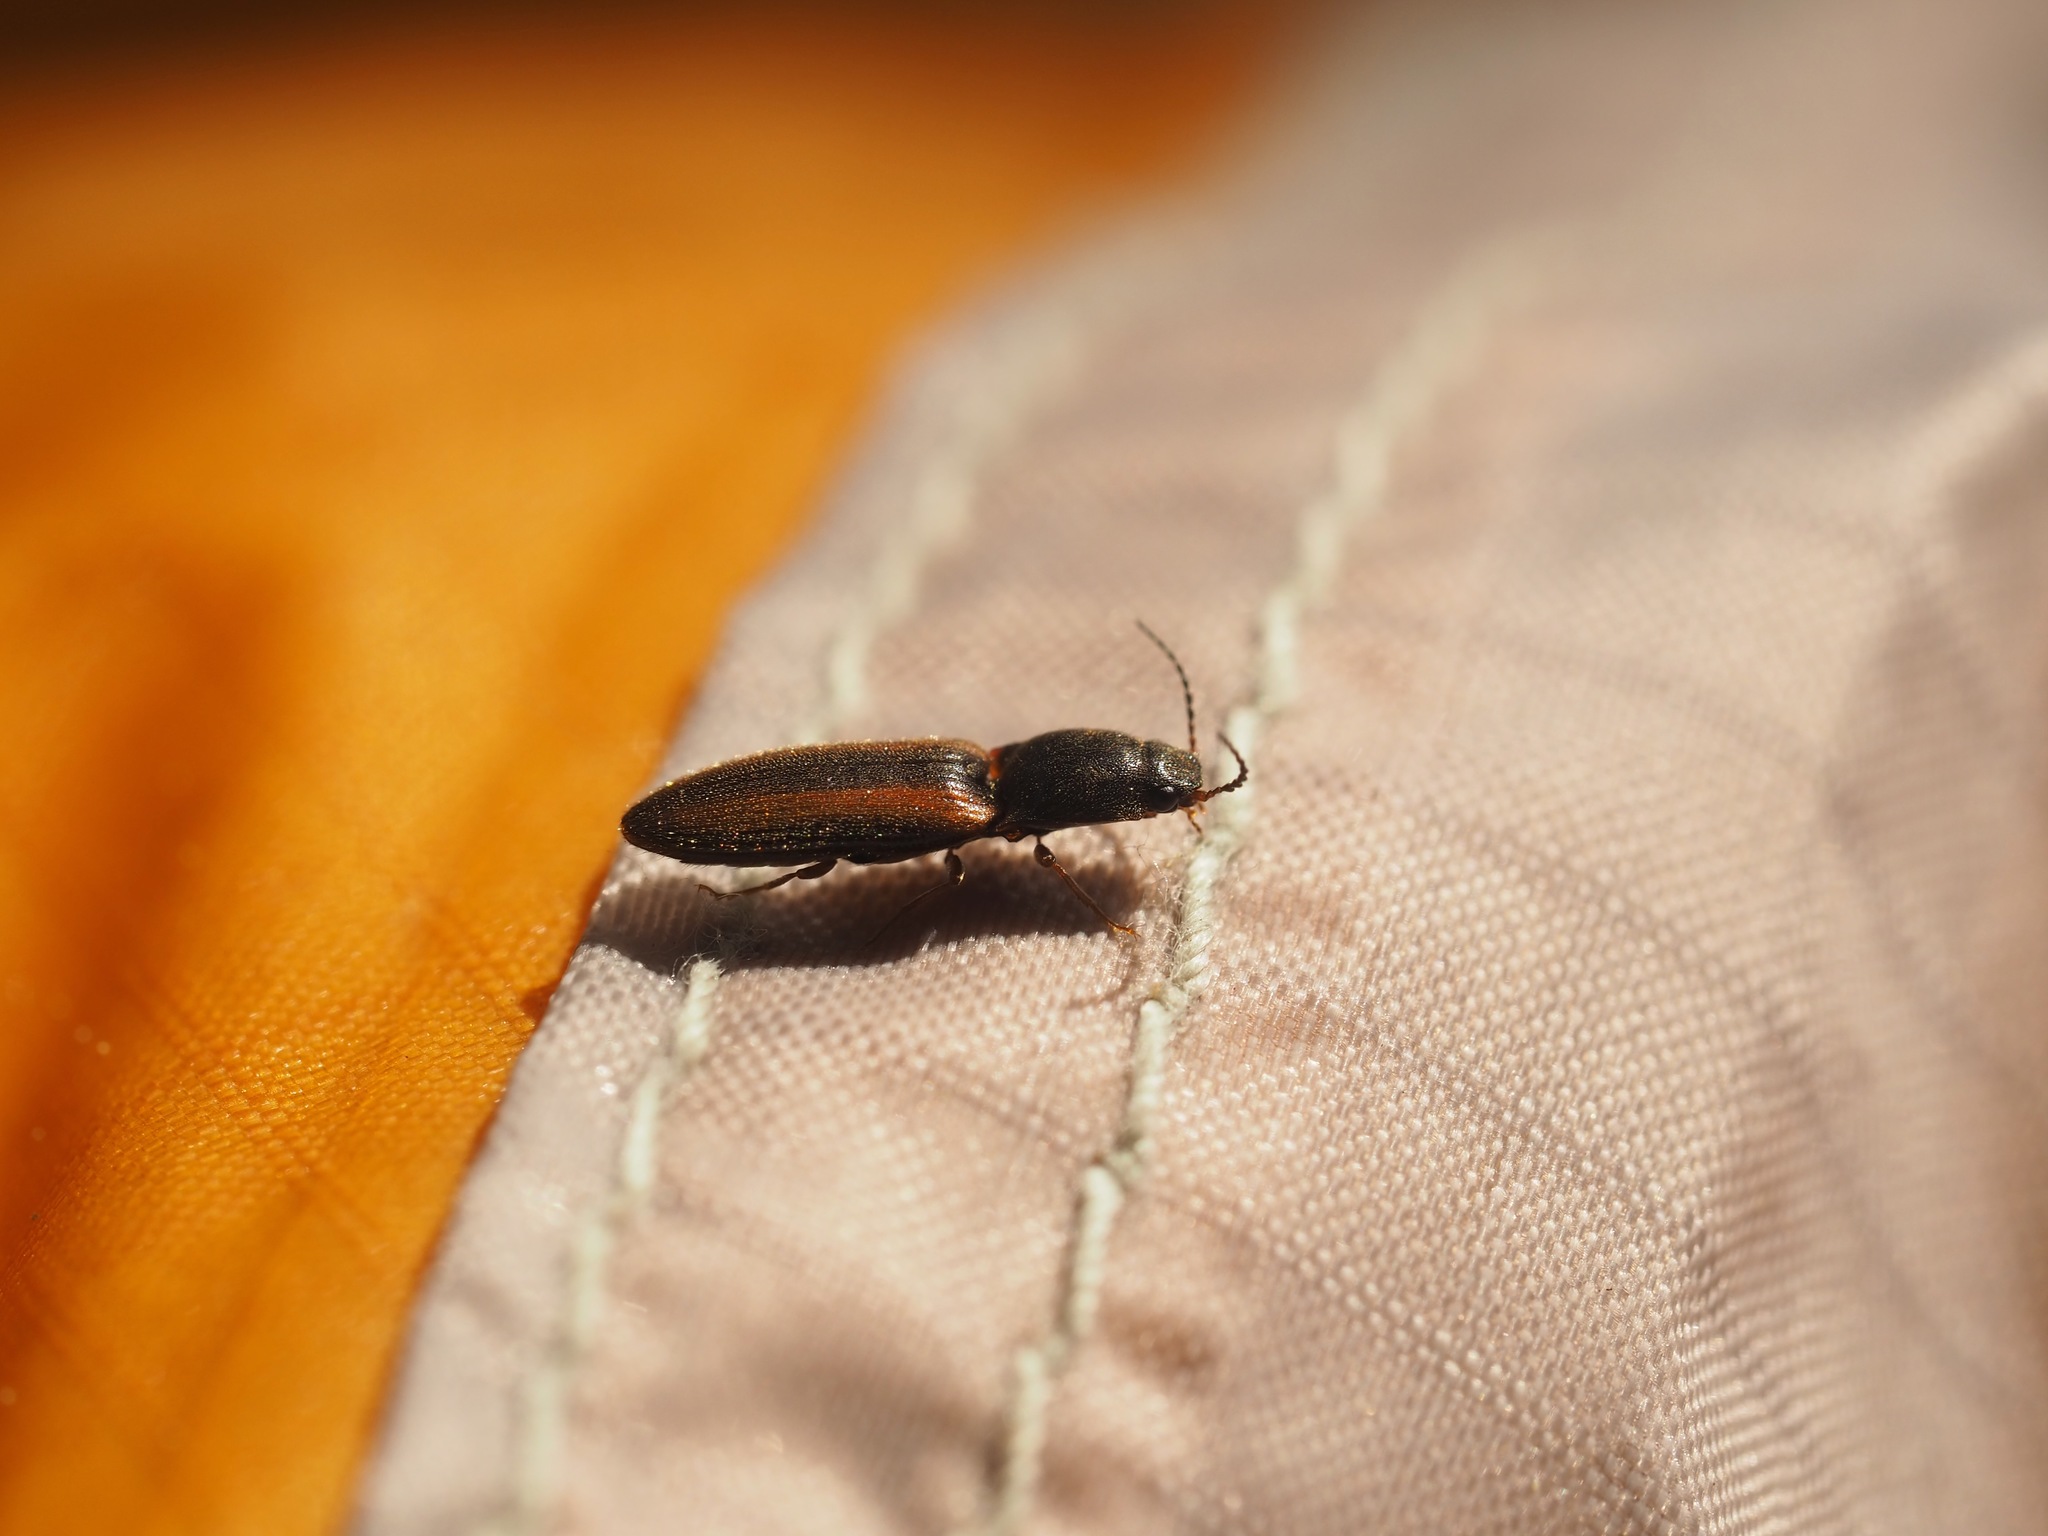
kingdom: Animalia
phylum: Arthropoda
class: Insecta
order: Coleoptera
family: Elateridae
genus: Athous
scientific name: Athous imitans
